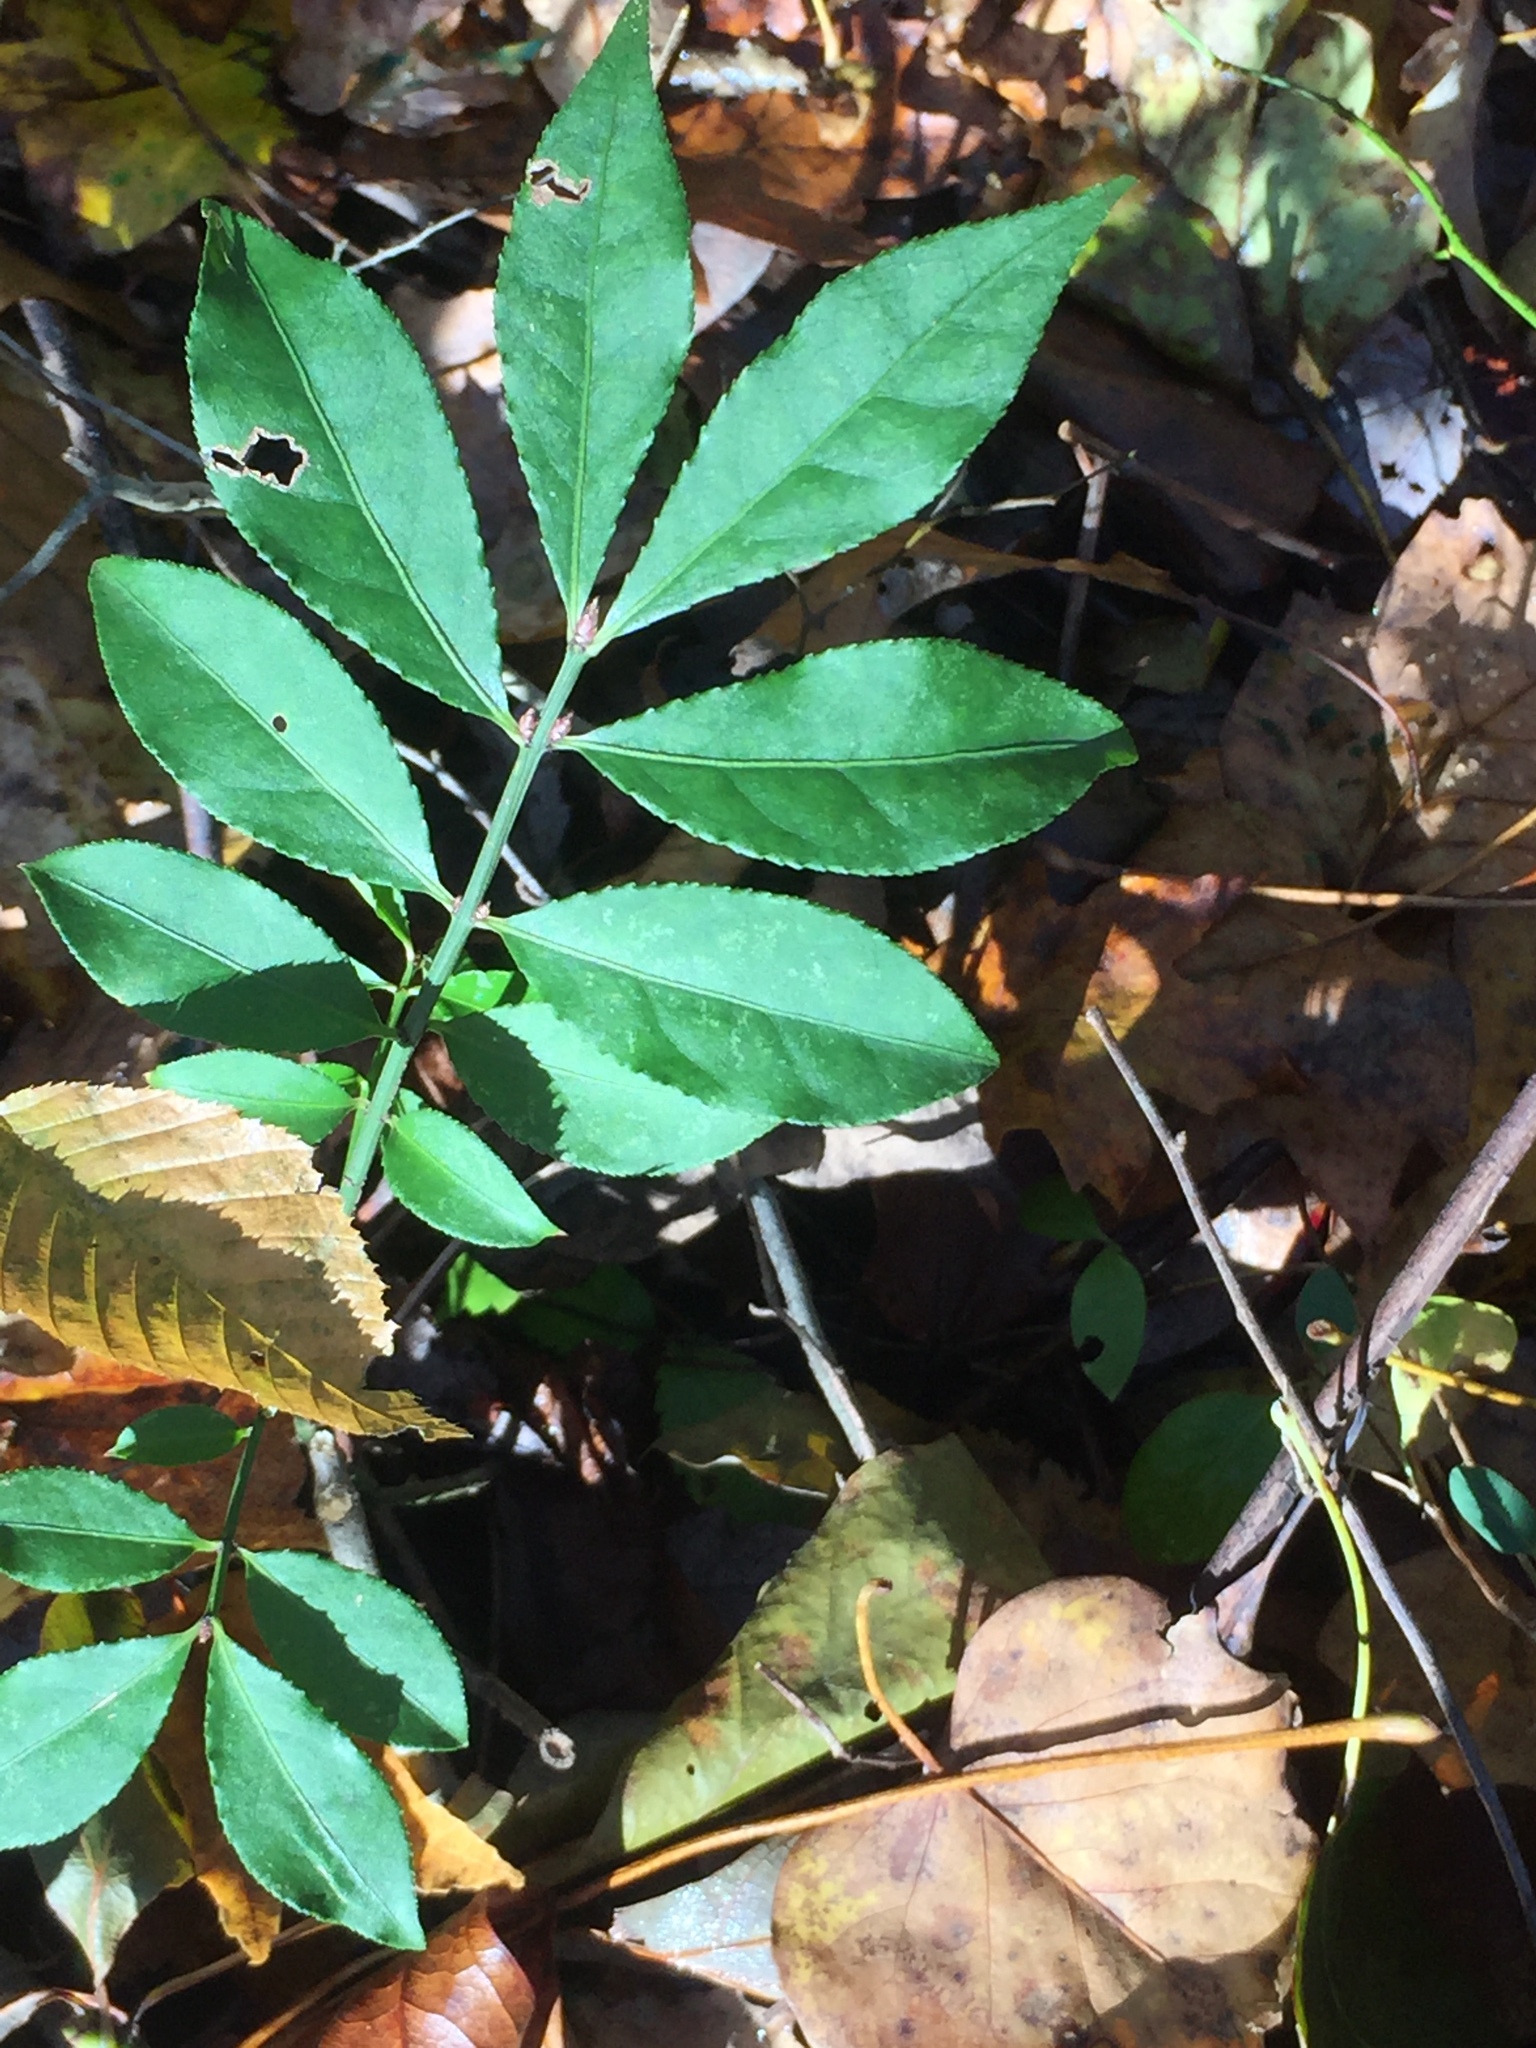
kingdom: Plantae
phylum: Tracheophyta
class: Magnoliopsida
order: Celastrales
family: Celastraceae
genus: Euonymus
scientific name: Euonymus alatus
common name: Winged euonymus
